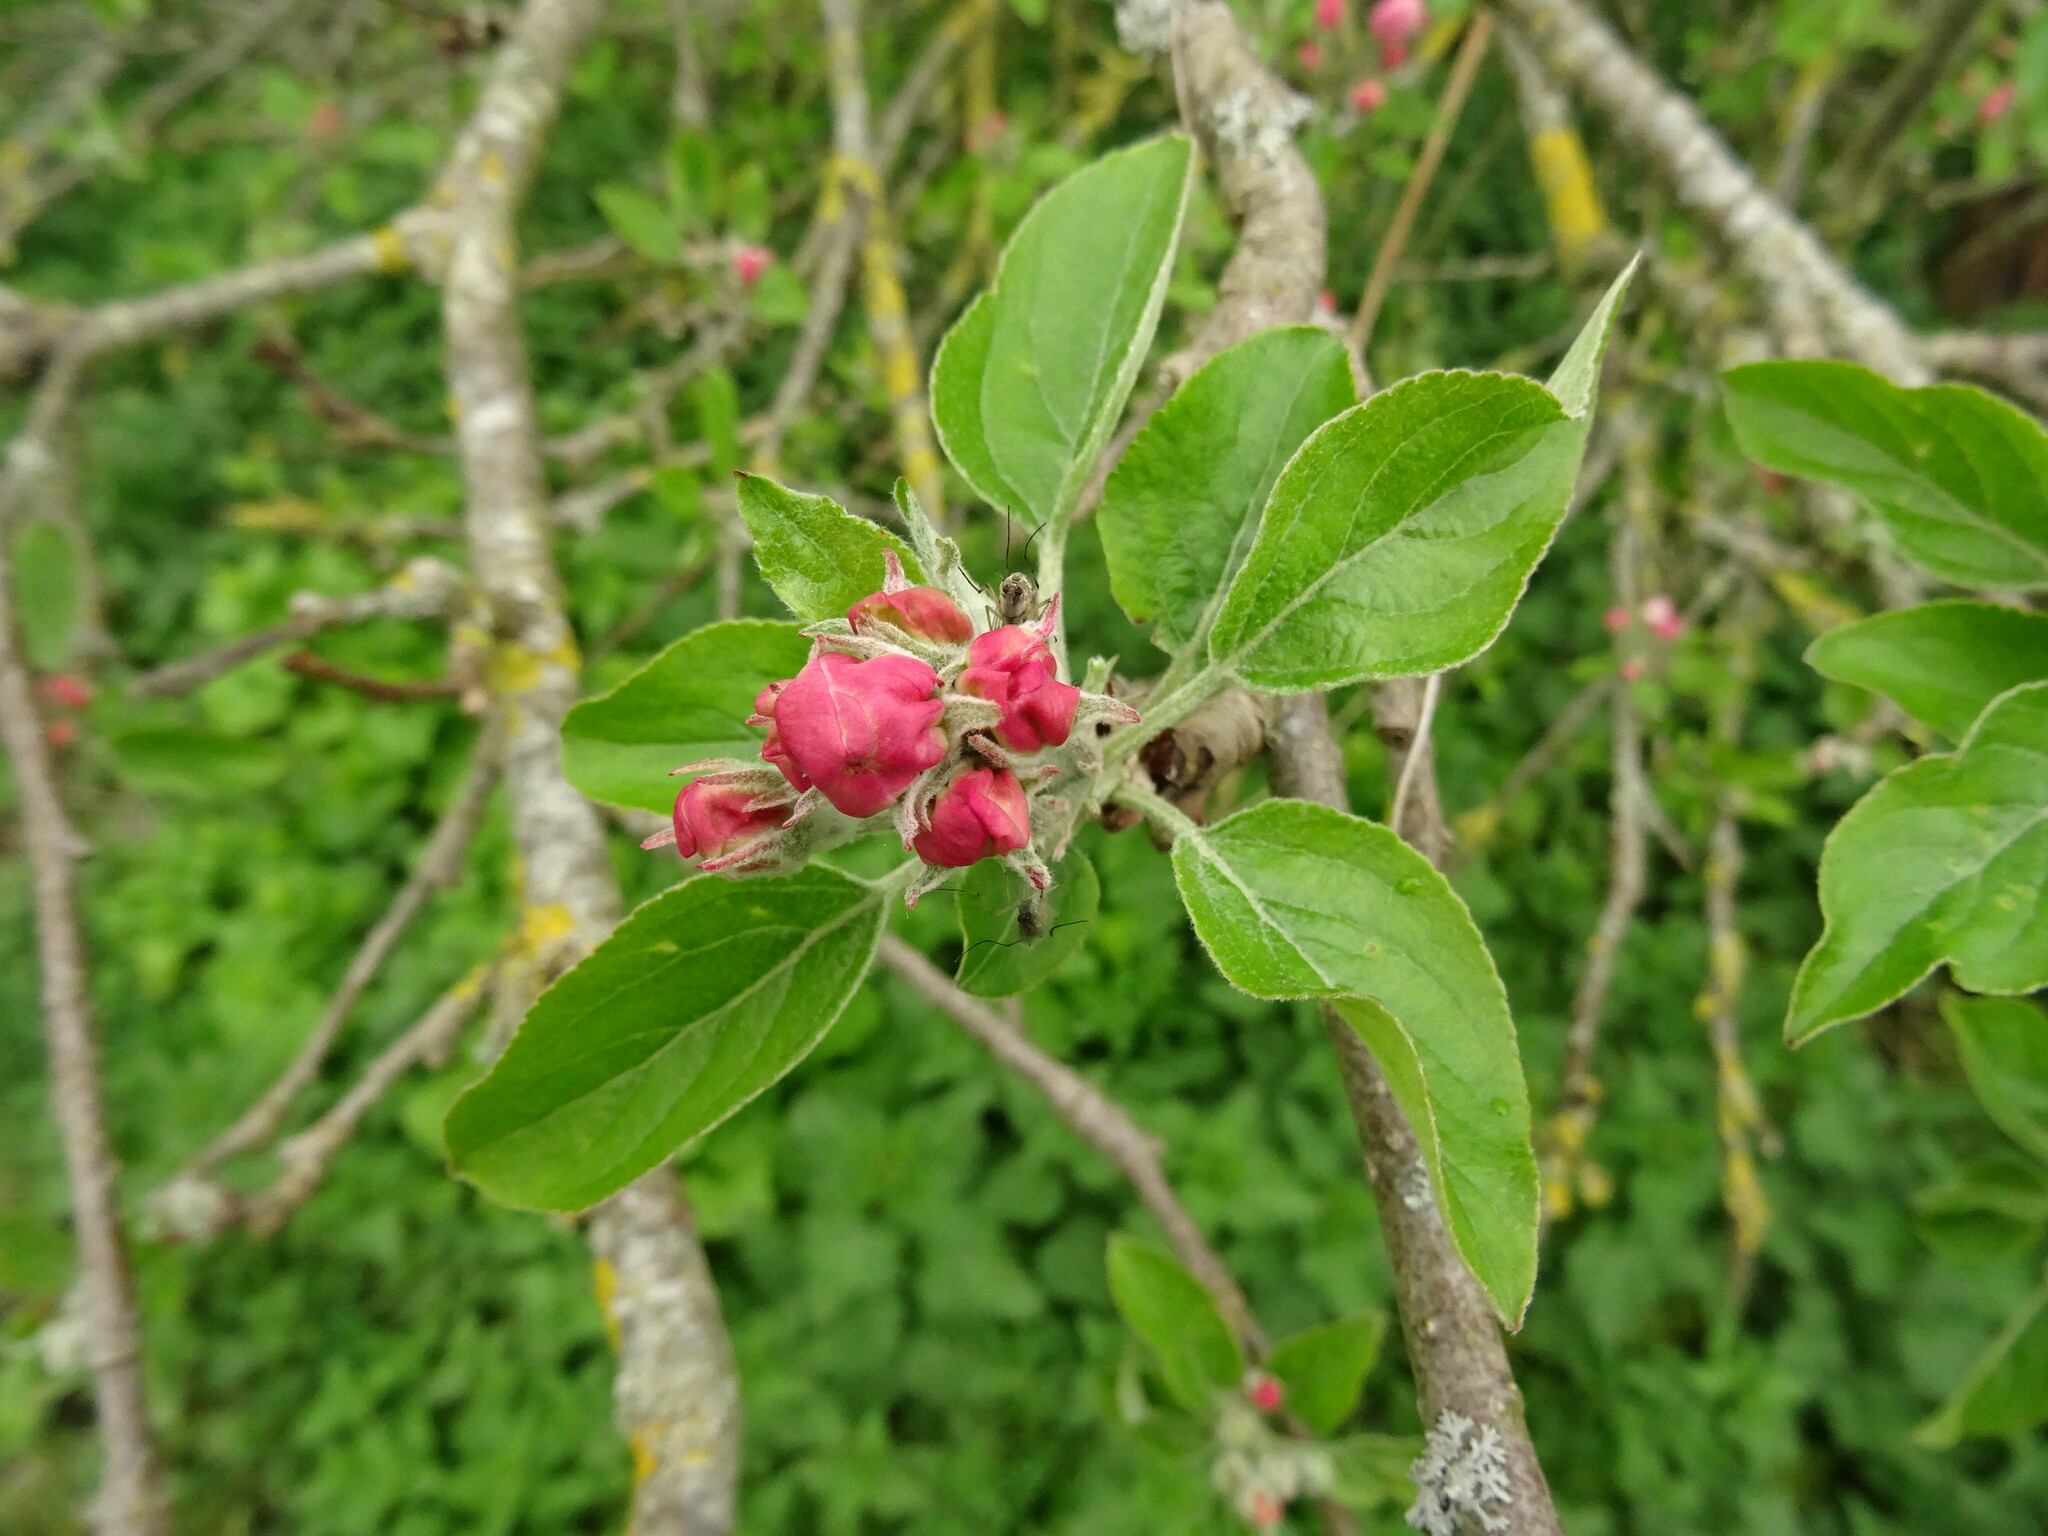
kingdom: Plantae
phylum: Tracheophyta
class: Magnoliopsida
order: Rosales
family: Rosaceae
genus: Malus
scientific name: Malus domestica
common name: Apple
